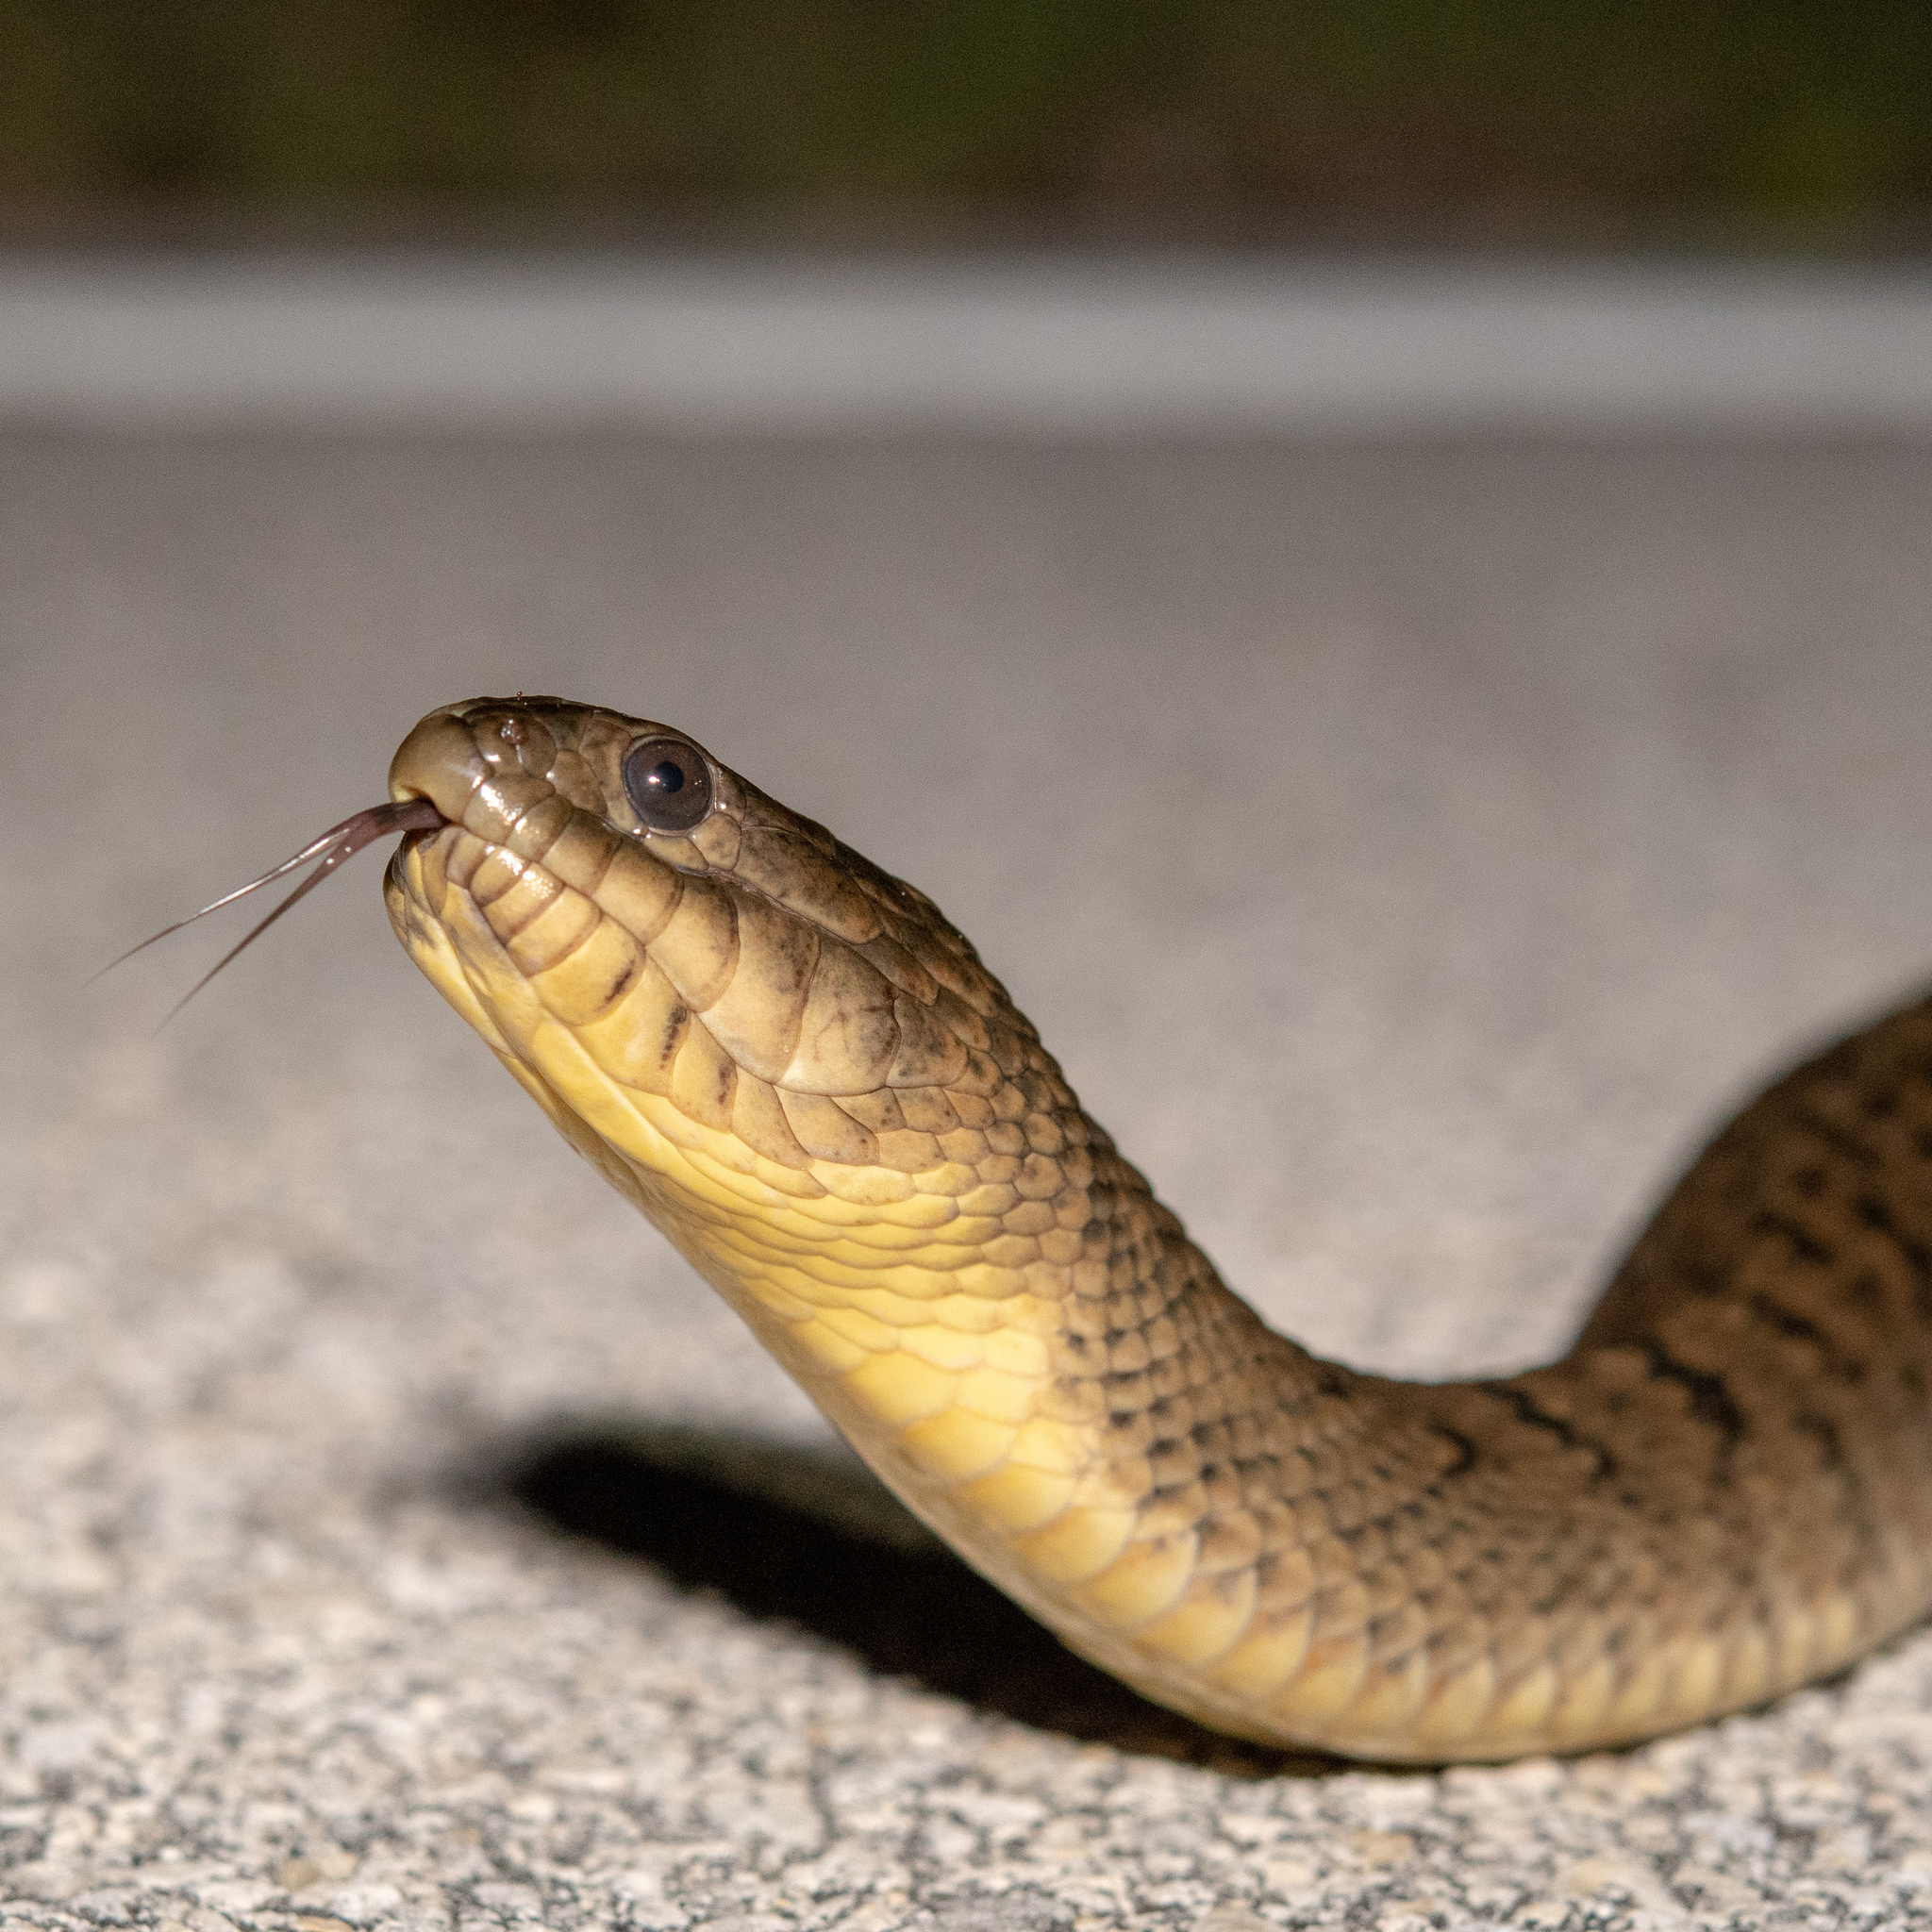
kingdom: Animalia
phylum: Chordata
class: Squamata
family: Colubridae
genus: Nerodia
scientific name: Nerodia floridana
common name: Florida green watersnake
